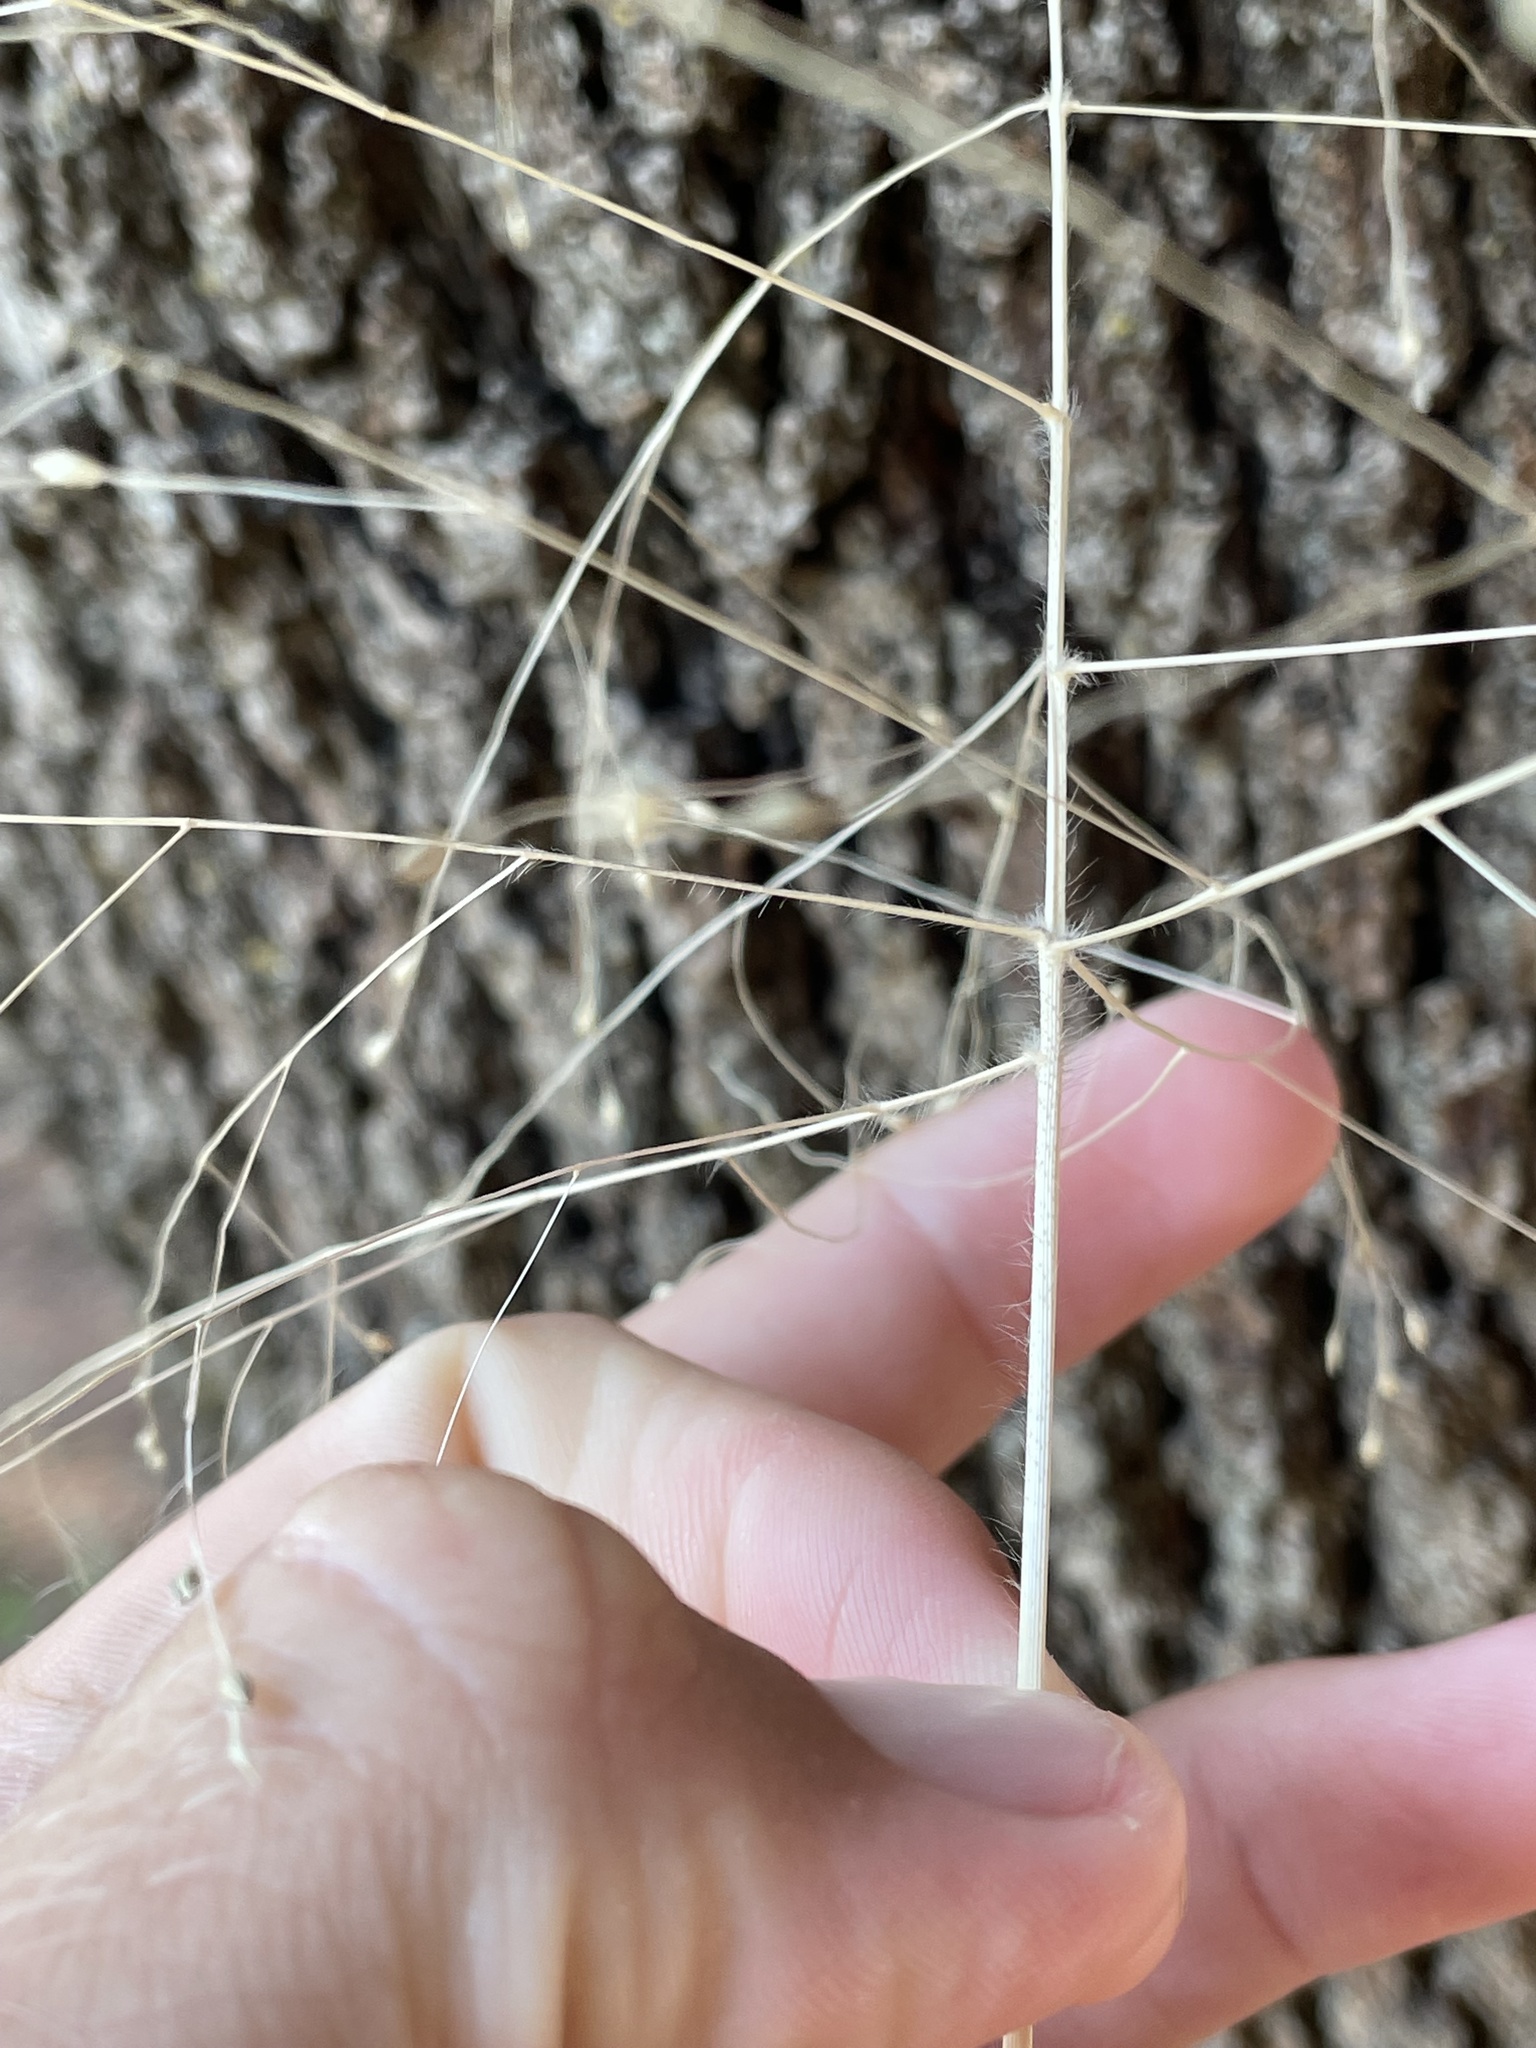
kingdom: Plantae
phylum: Tracheophyta
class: Liliopsida
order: Poales
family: Poaceae
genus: Panicum
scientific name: Panicum capillare
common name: Witch-grass
